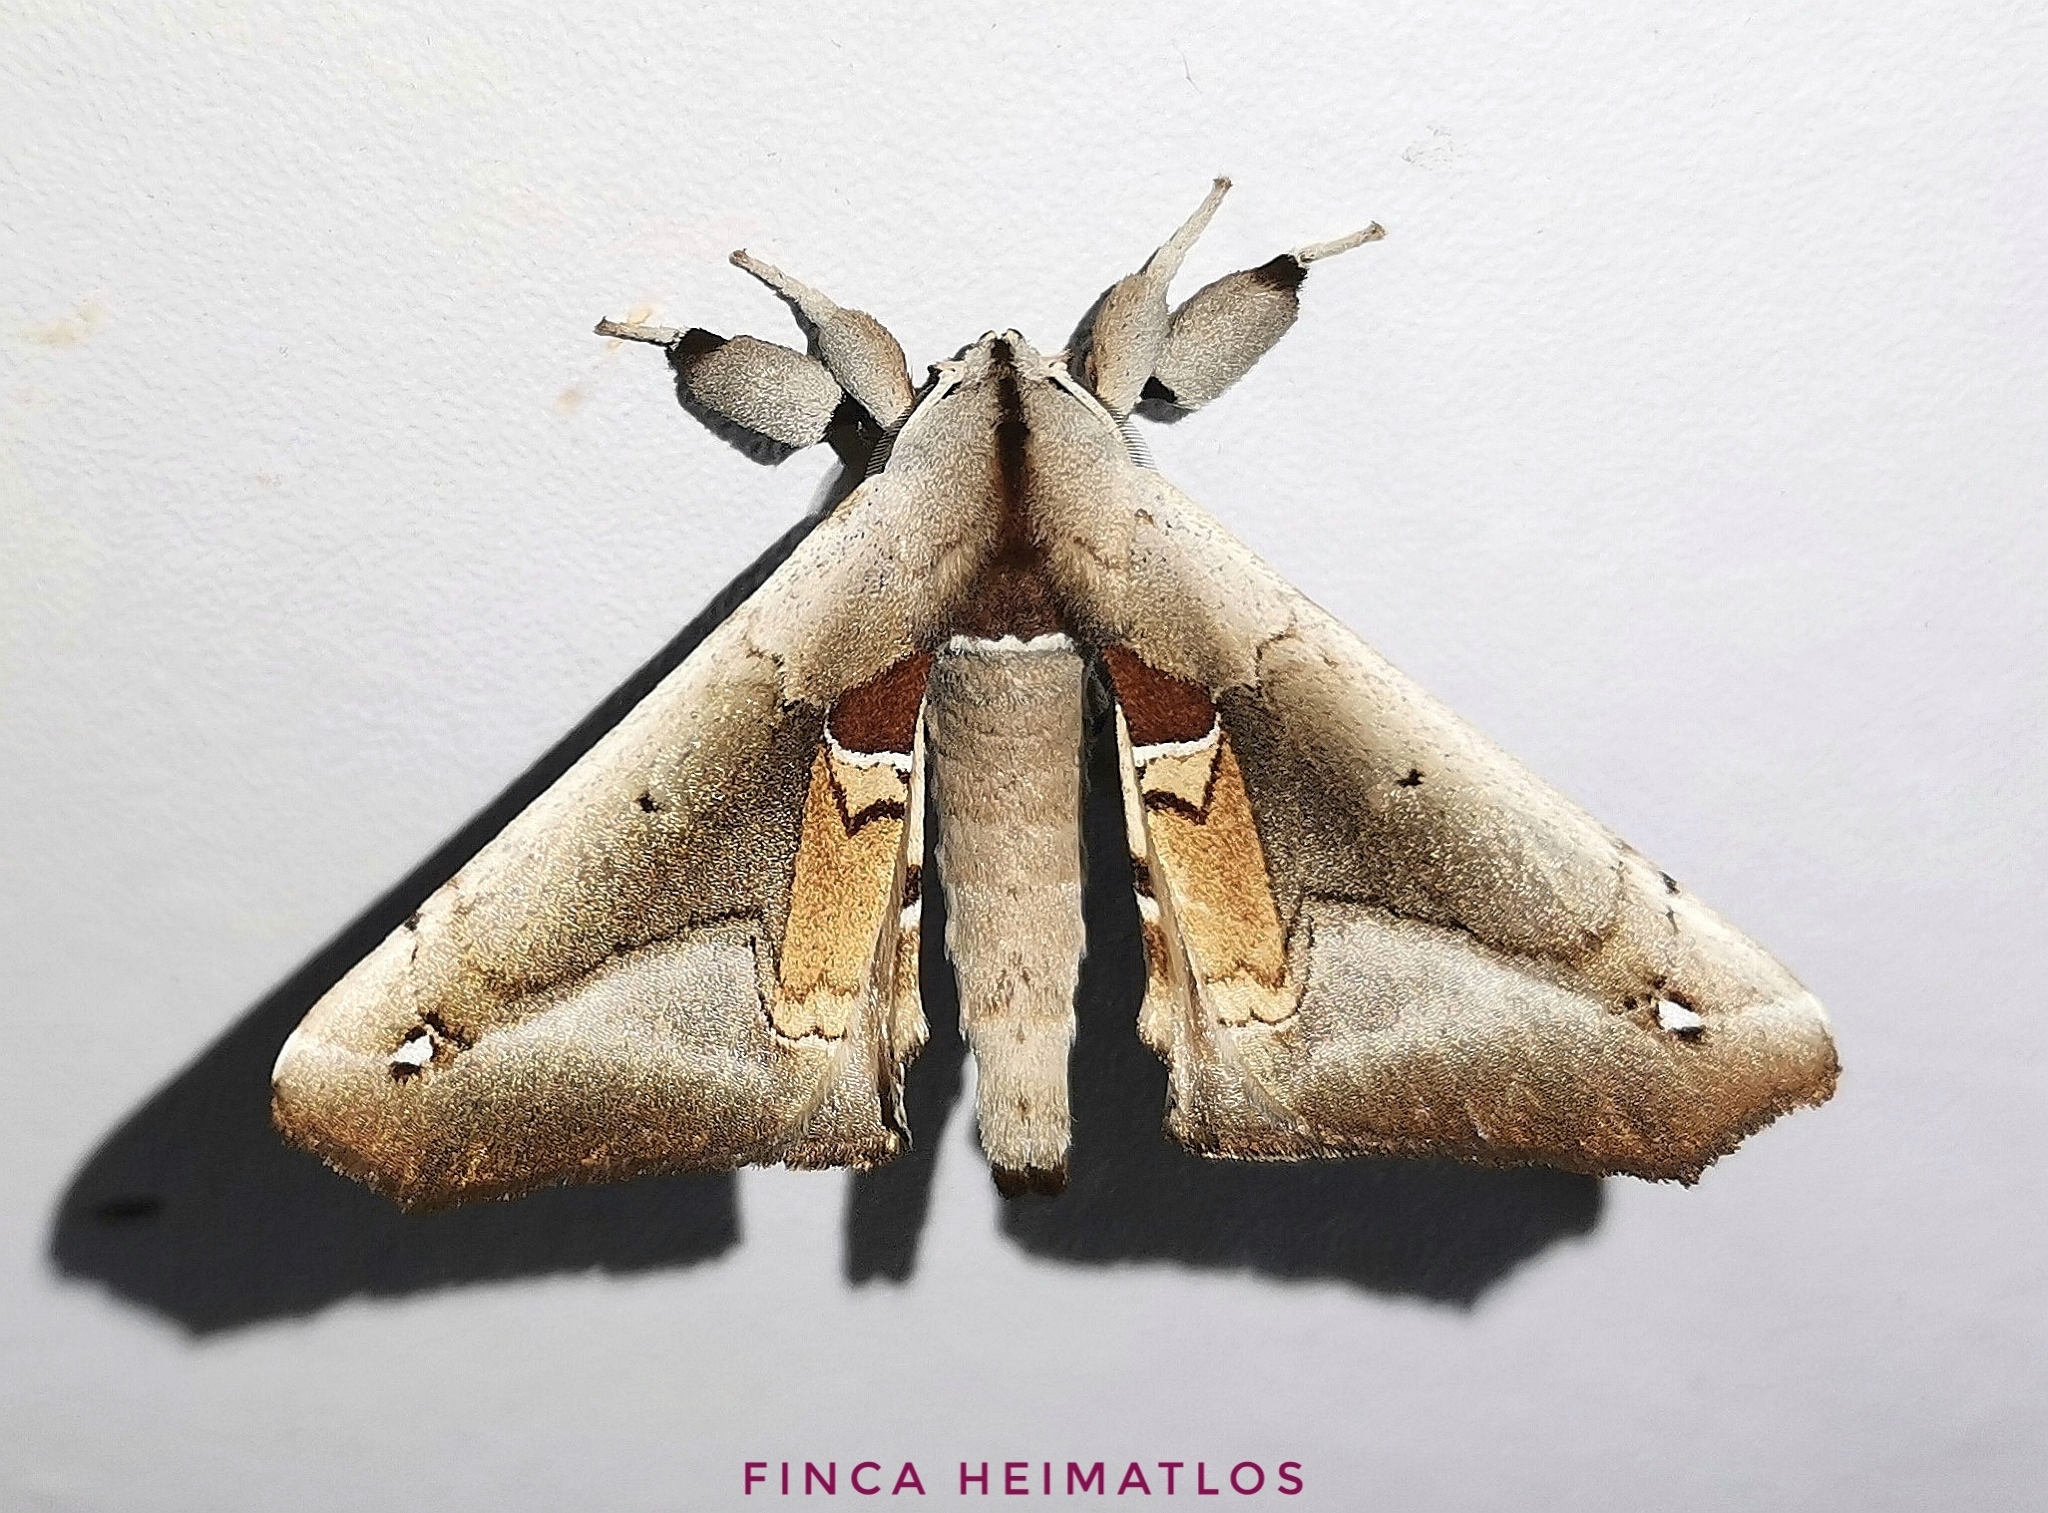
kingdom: Animalia
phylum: Arthropoda
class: Insecta
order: Lepidoptera
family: Apatelodidae
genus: Hygrochroa
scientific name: Hygrochroa Apatelodes dorrace
